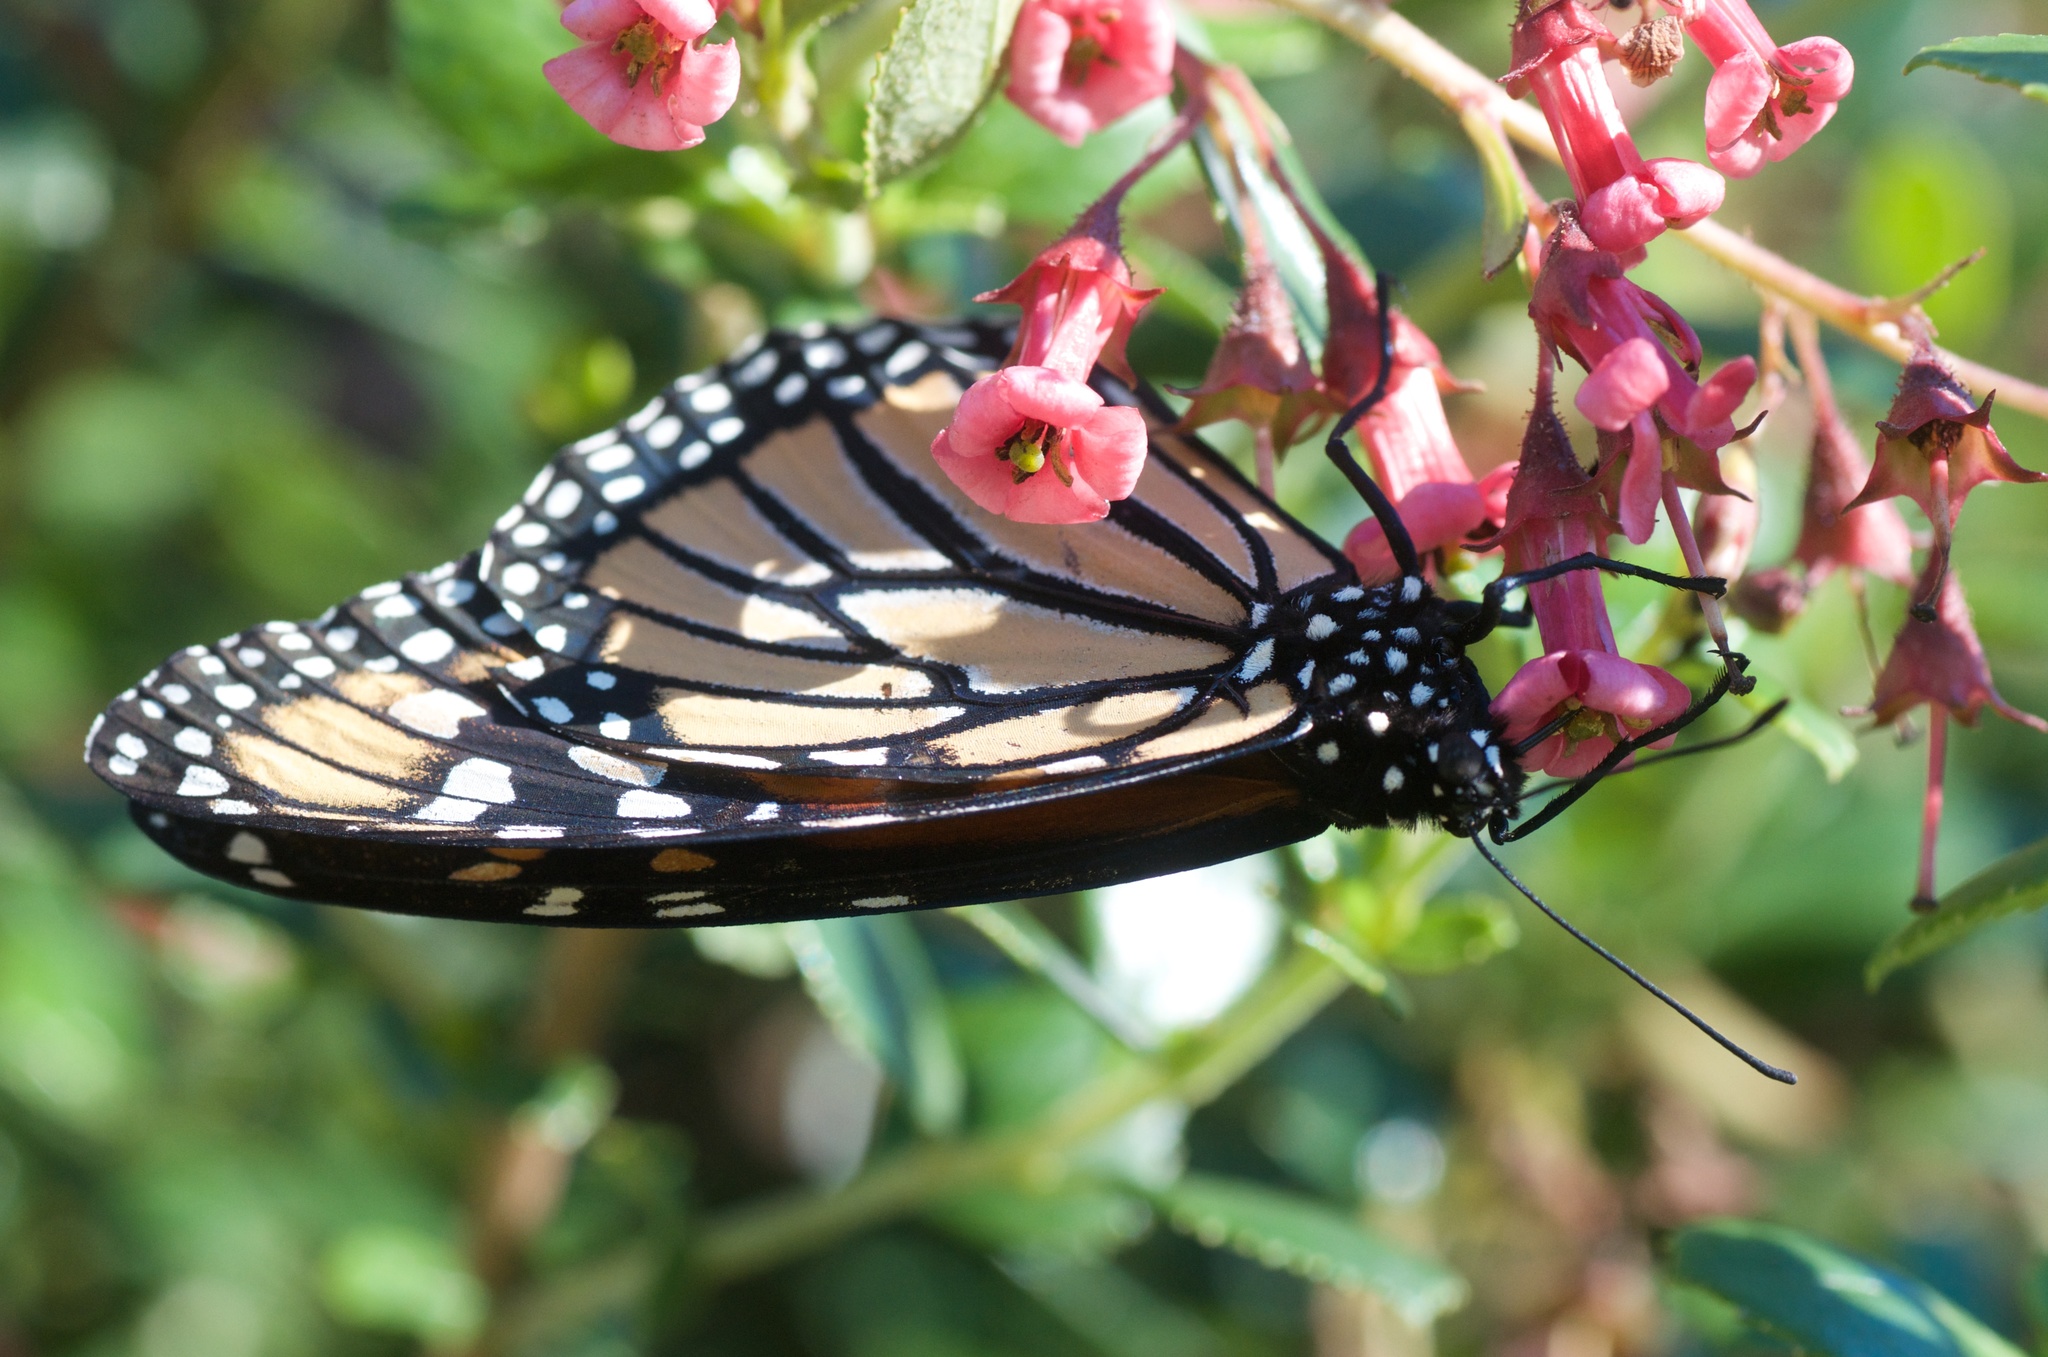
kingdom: Animalia
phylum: Arthropoda
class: Insecta
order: Lepidoptera
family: Nymphalidae
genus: Danaus
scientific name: Danaus plexippus
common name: Monarch
